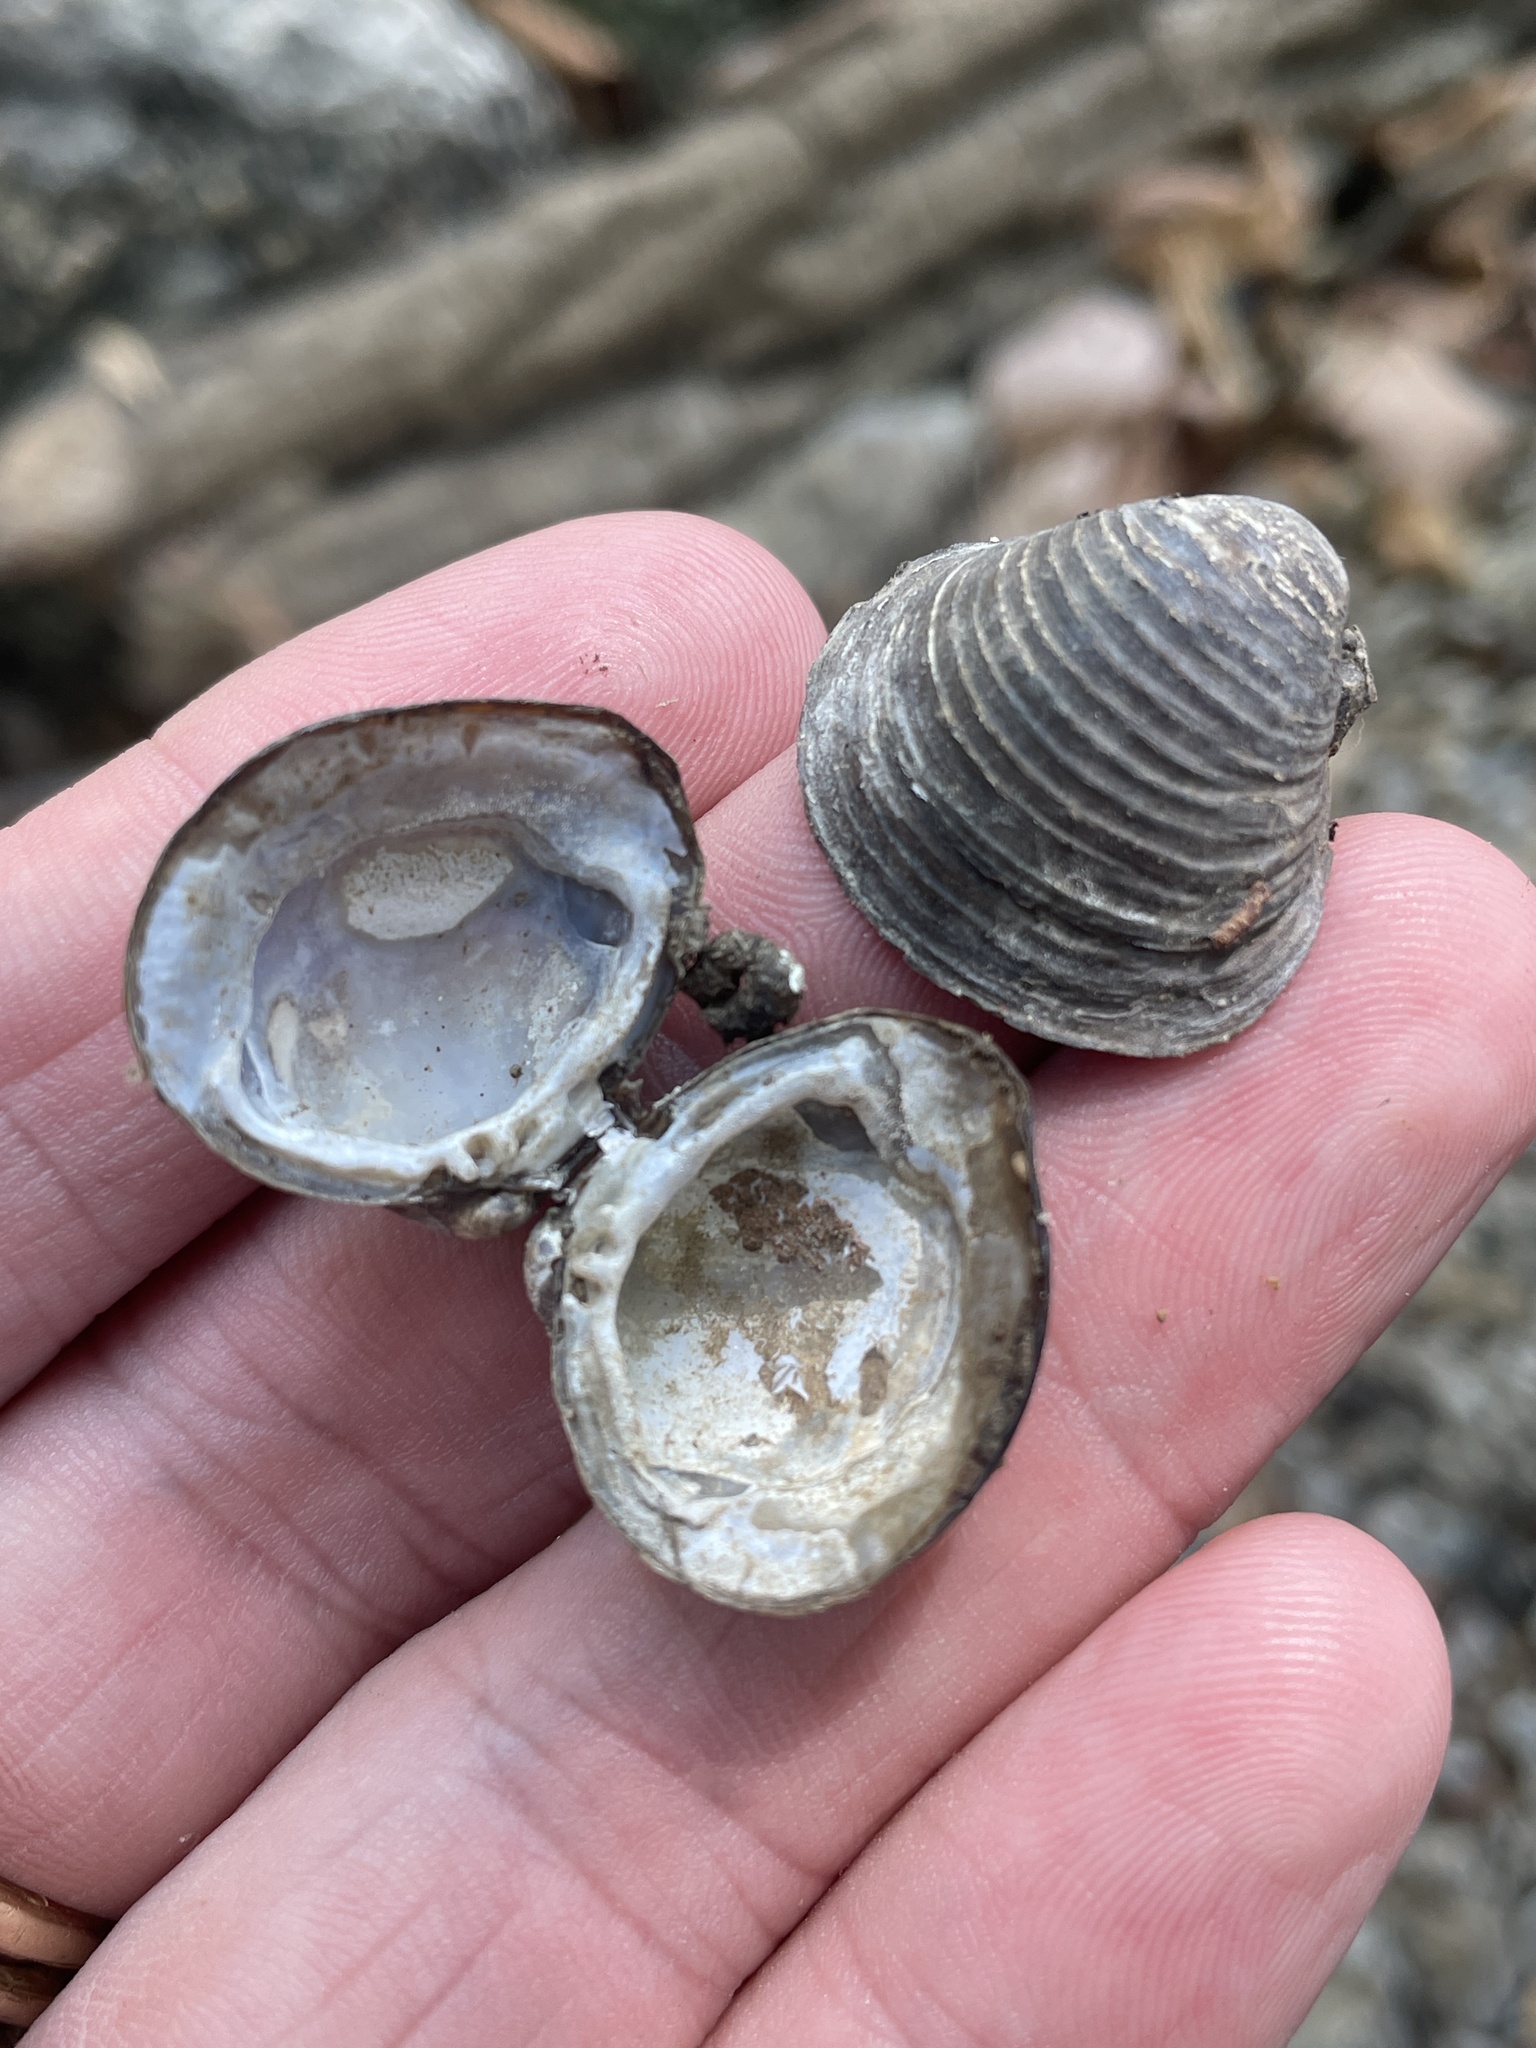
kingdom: Animalia
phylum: Mollusca
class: Bivalvia
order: Venerida
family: Cyrenidae
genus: Corbicula
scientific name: Corbicula fluminea
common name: Asian clam
